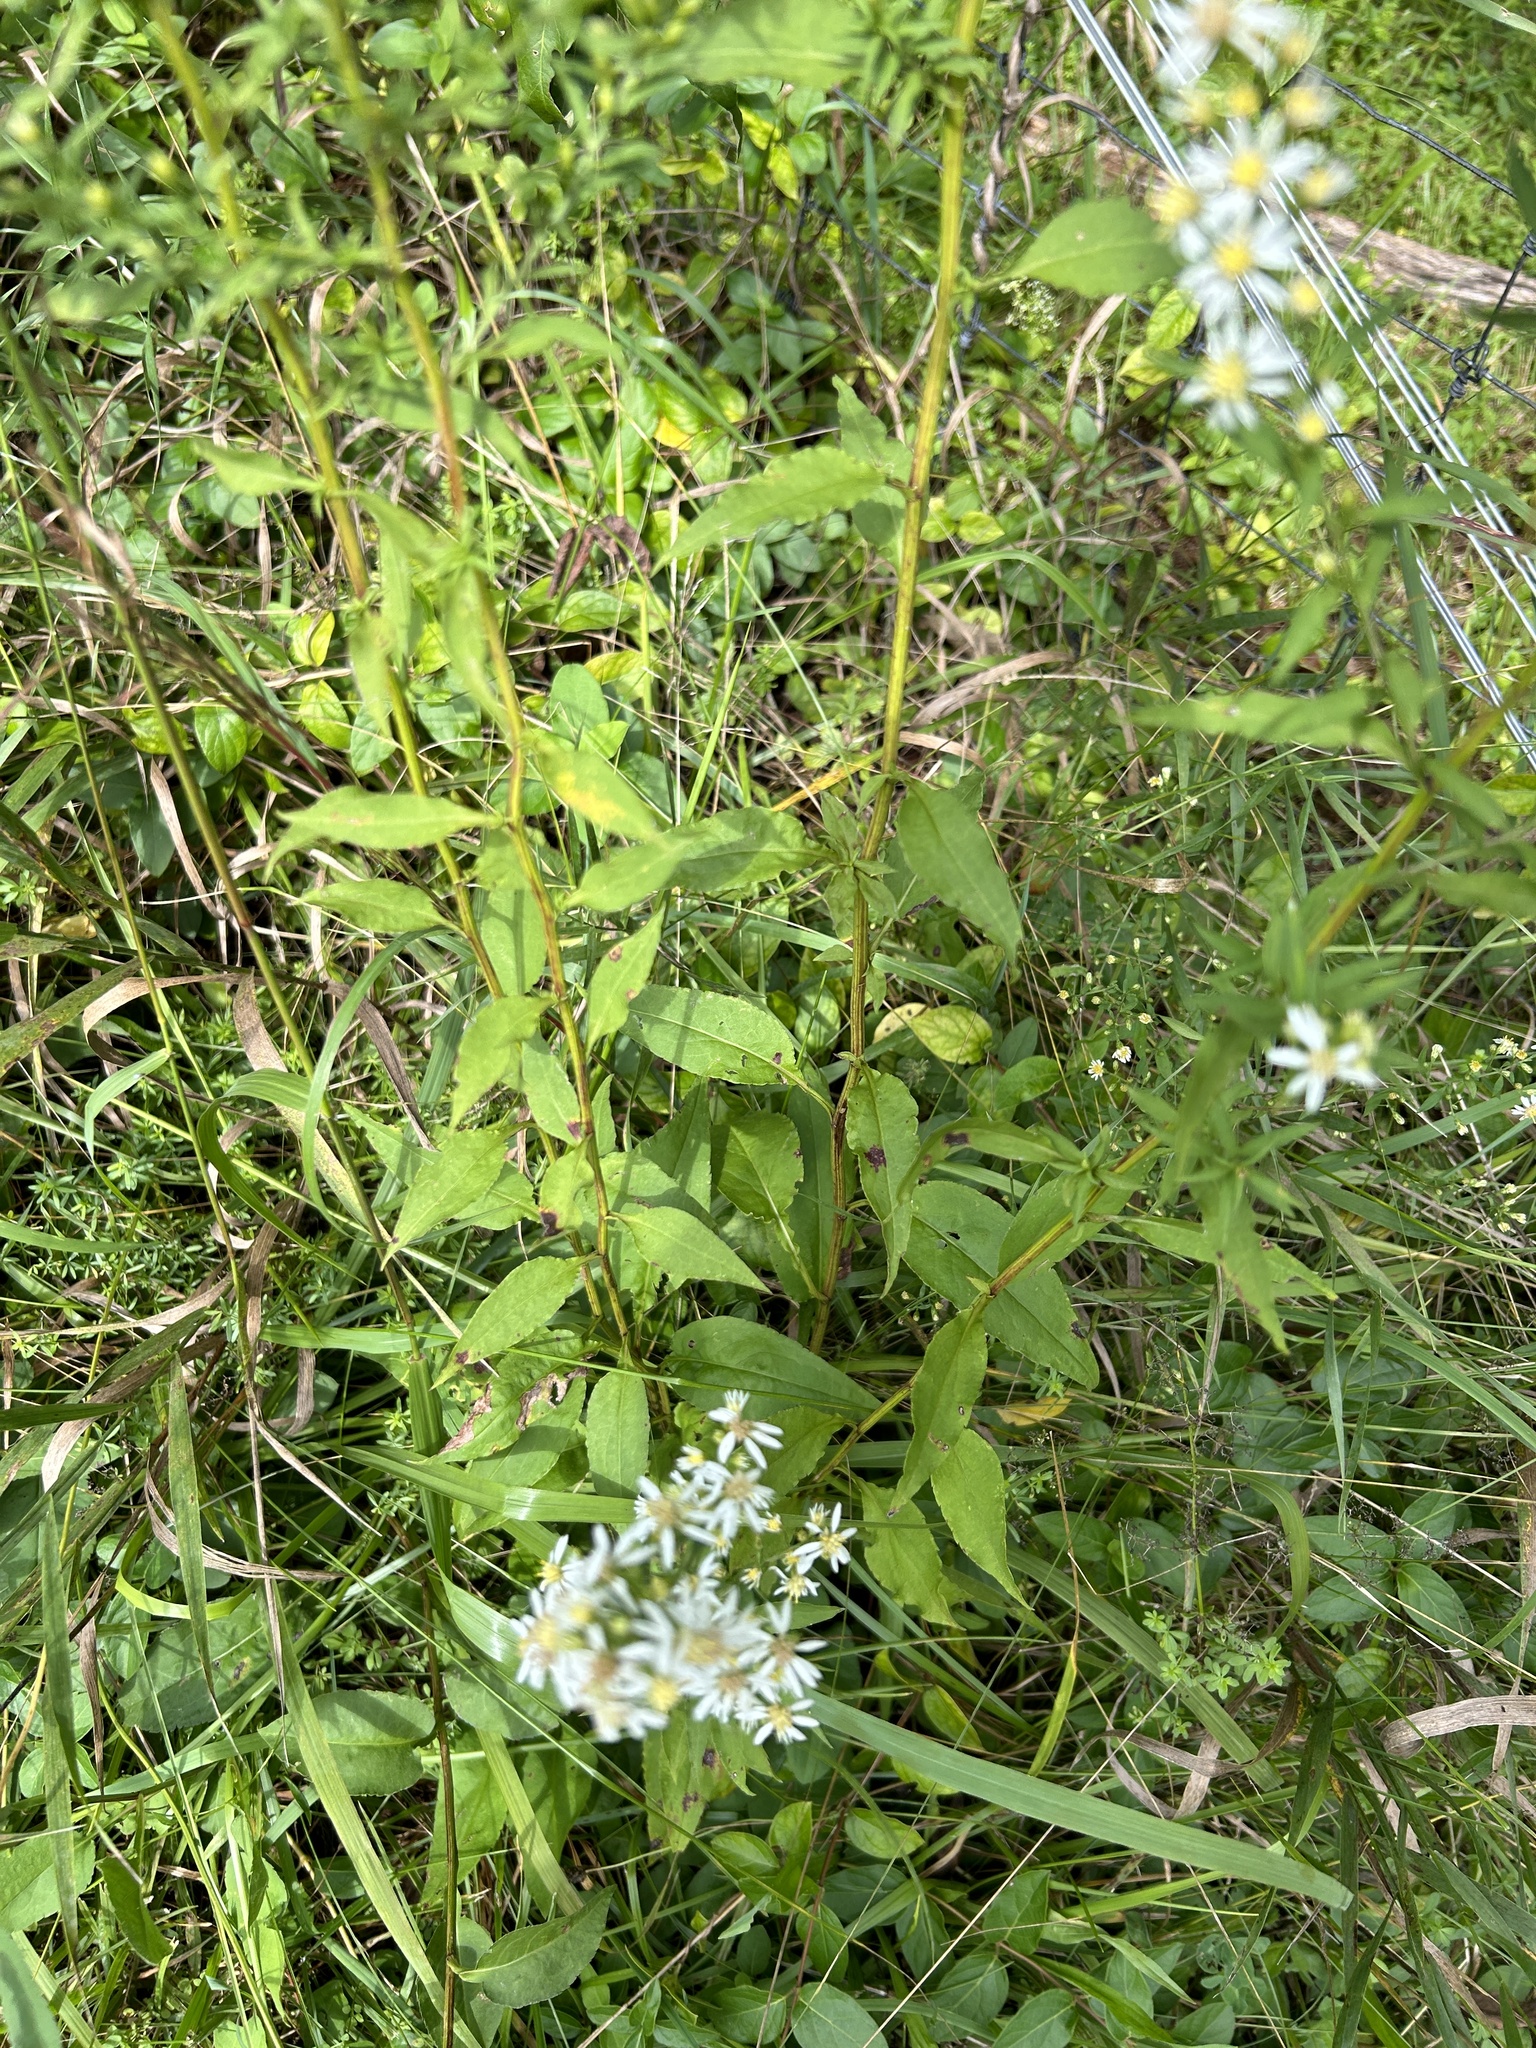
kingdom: Plantae
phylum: Tracheophyta
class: Magnoliopsida
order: Asterales
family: Asteraceae
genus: Symphyotrichum
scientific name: Symphyotrichum urophyllum
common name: Arrow-leaved aster
